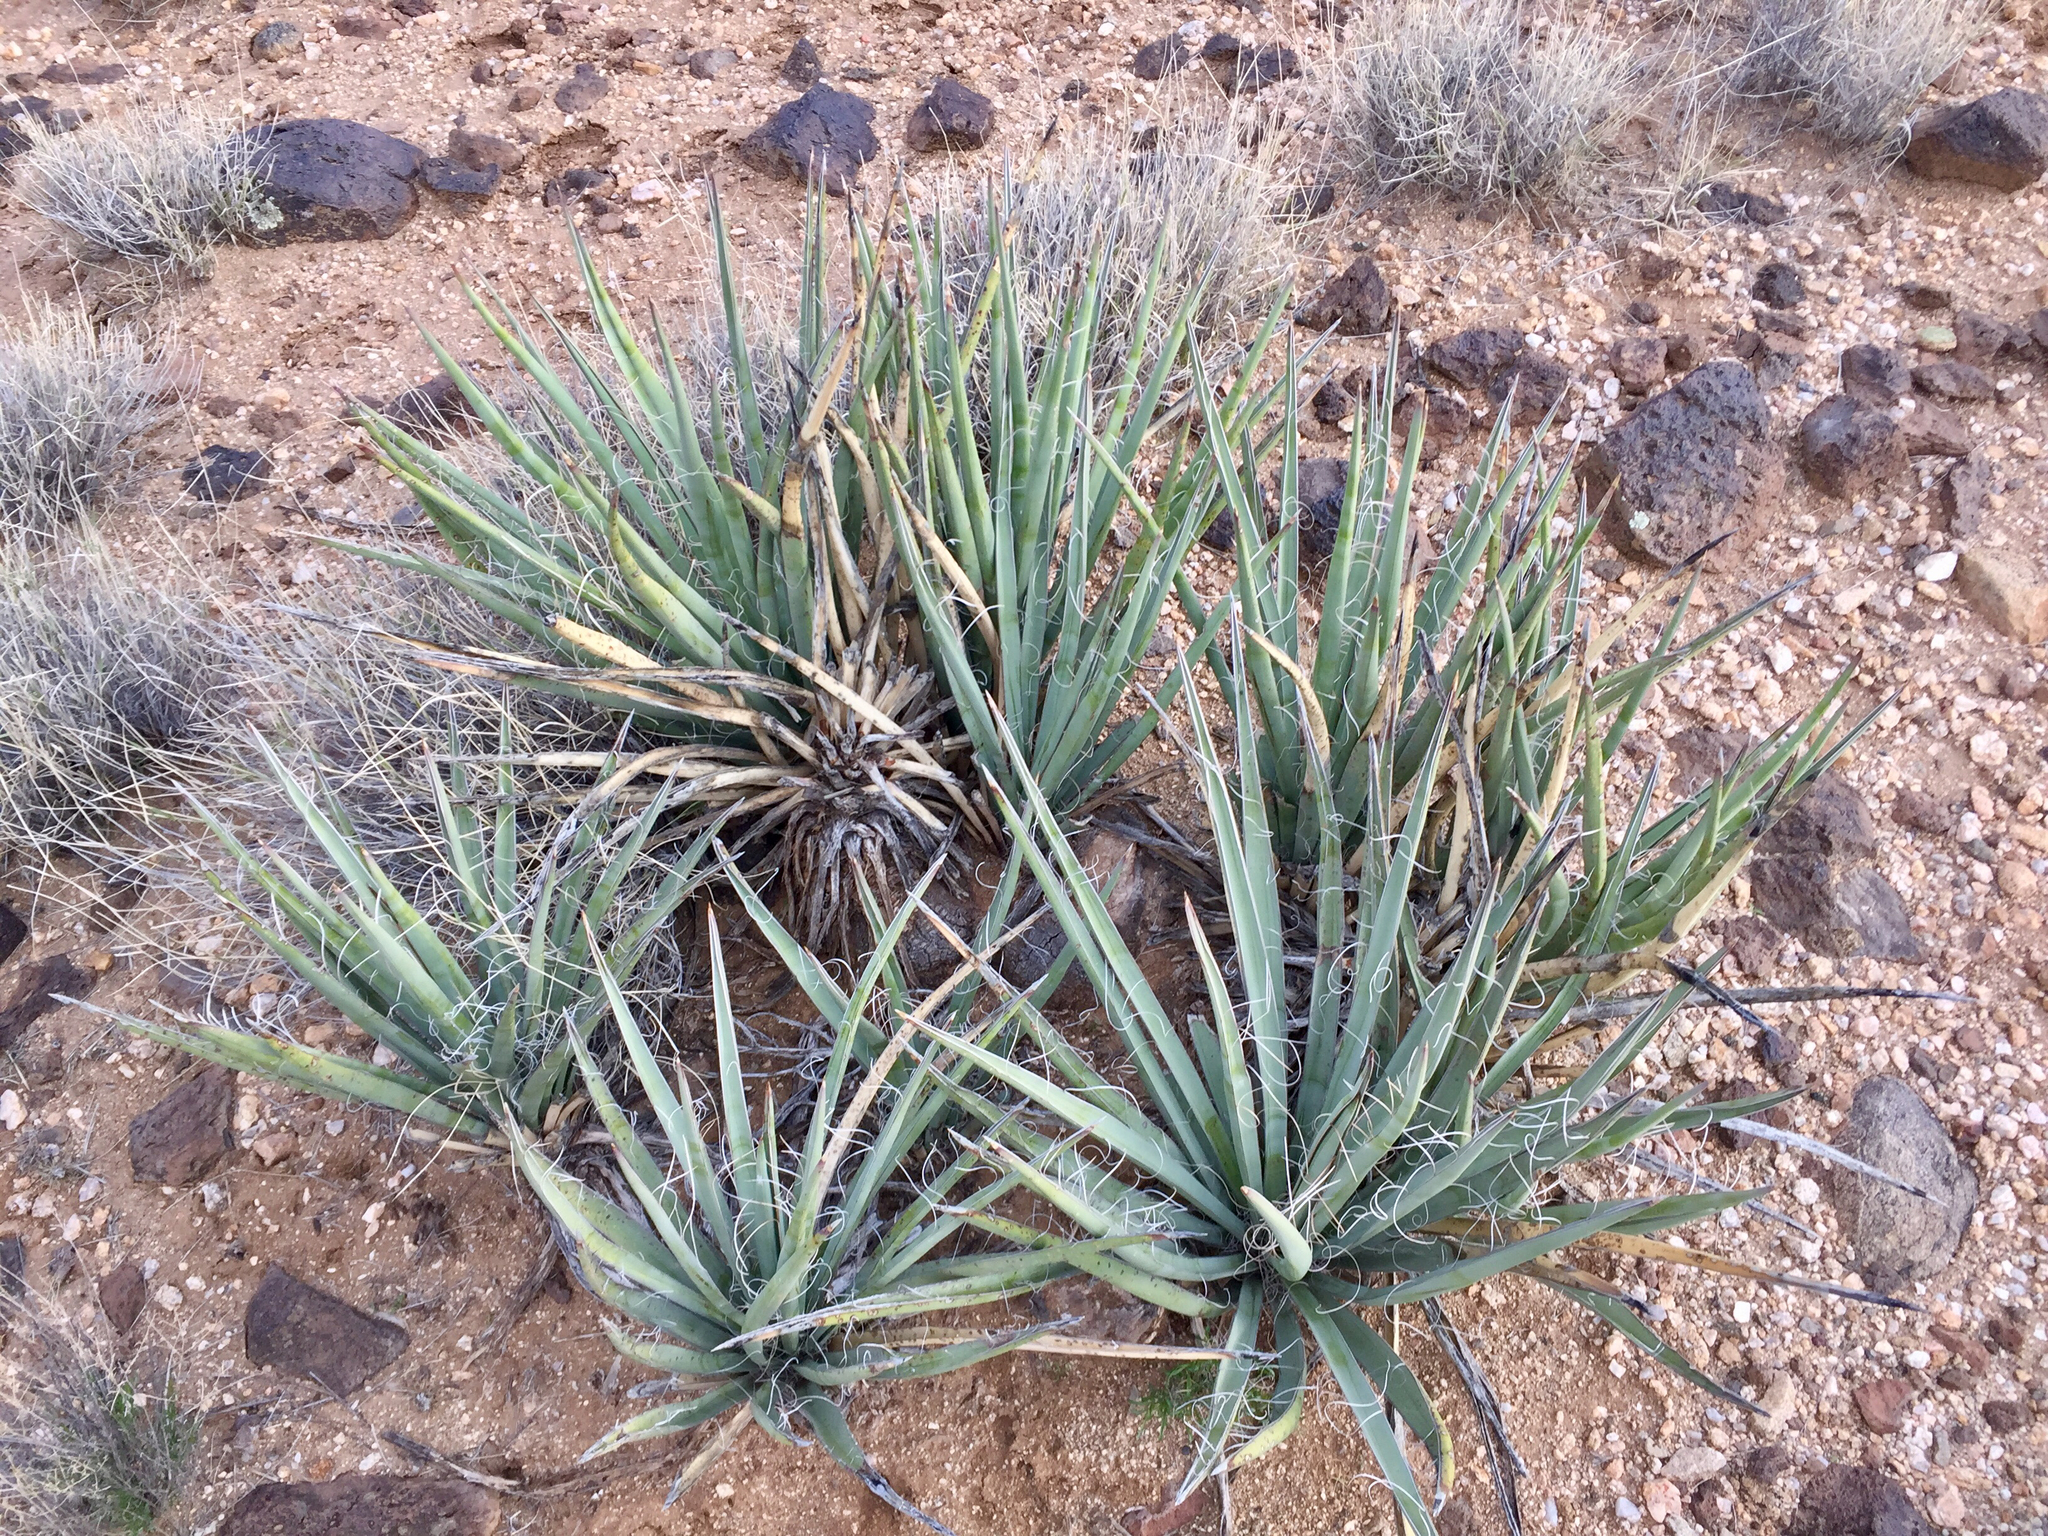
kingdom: Plantae
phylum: Tracheophyta
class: Liliopsida
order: Asparagales
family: Asparagaceae
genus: Yucca
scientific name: Yucca baccata
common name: Banana yucca
